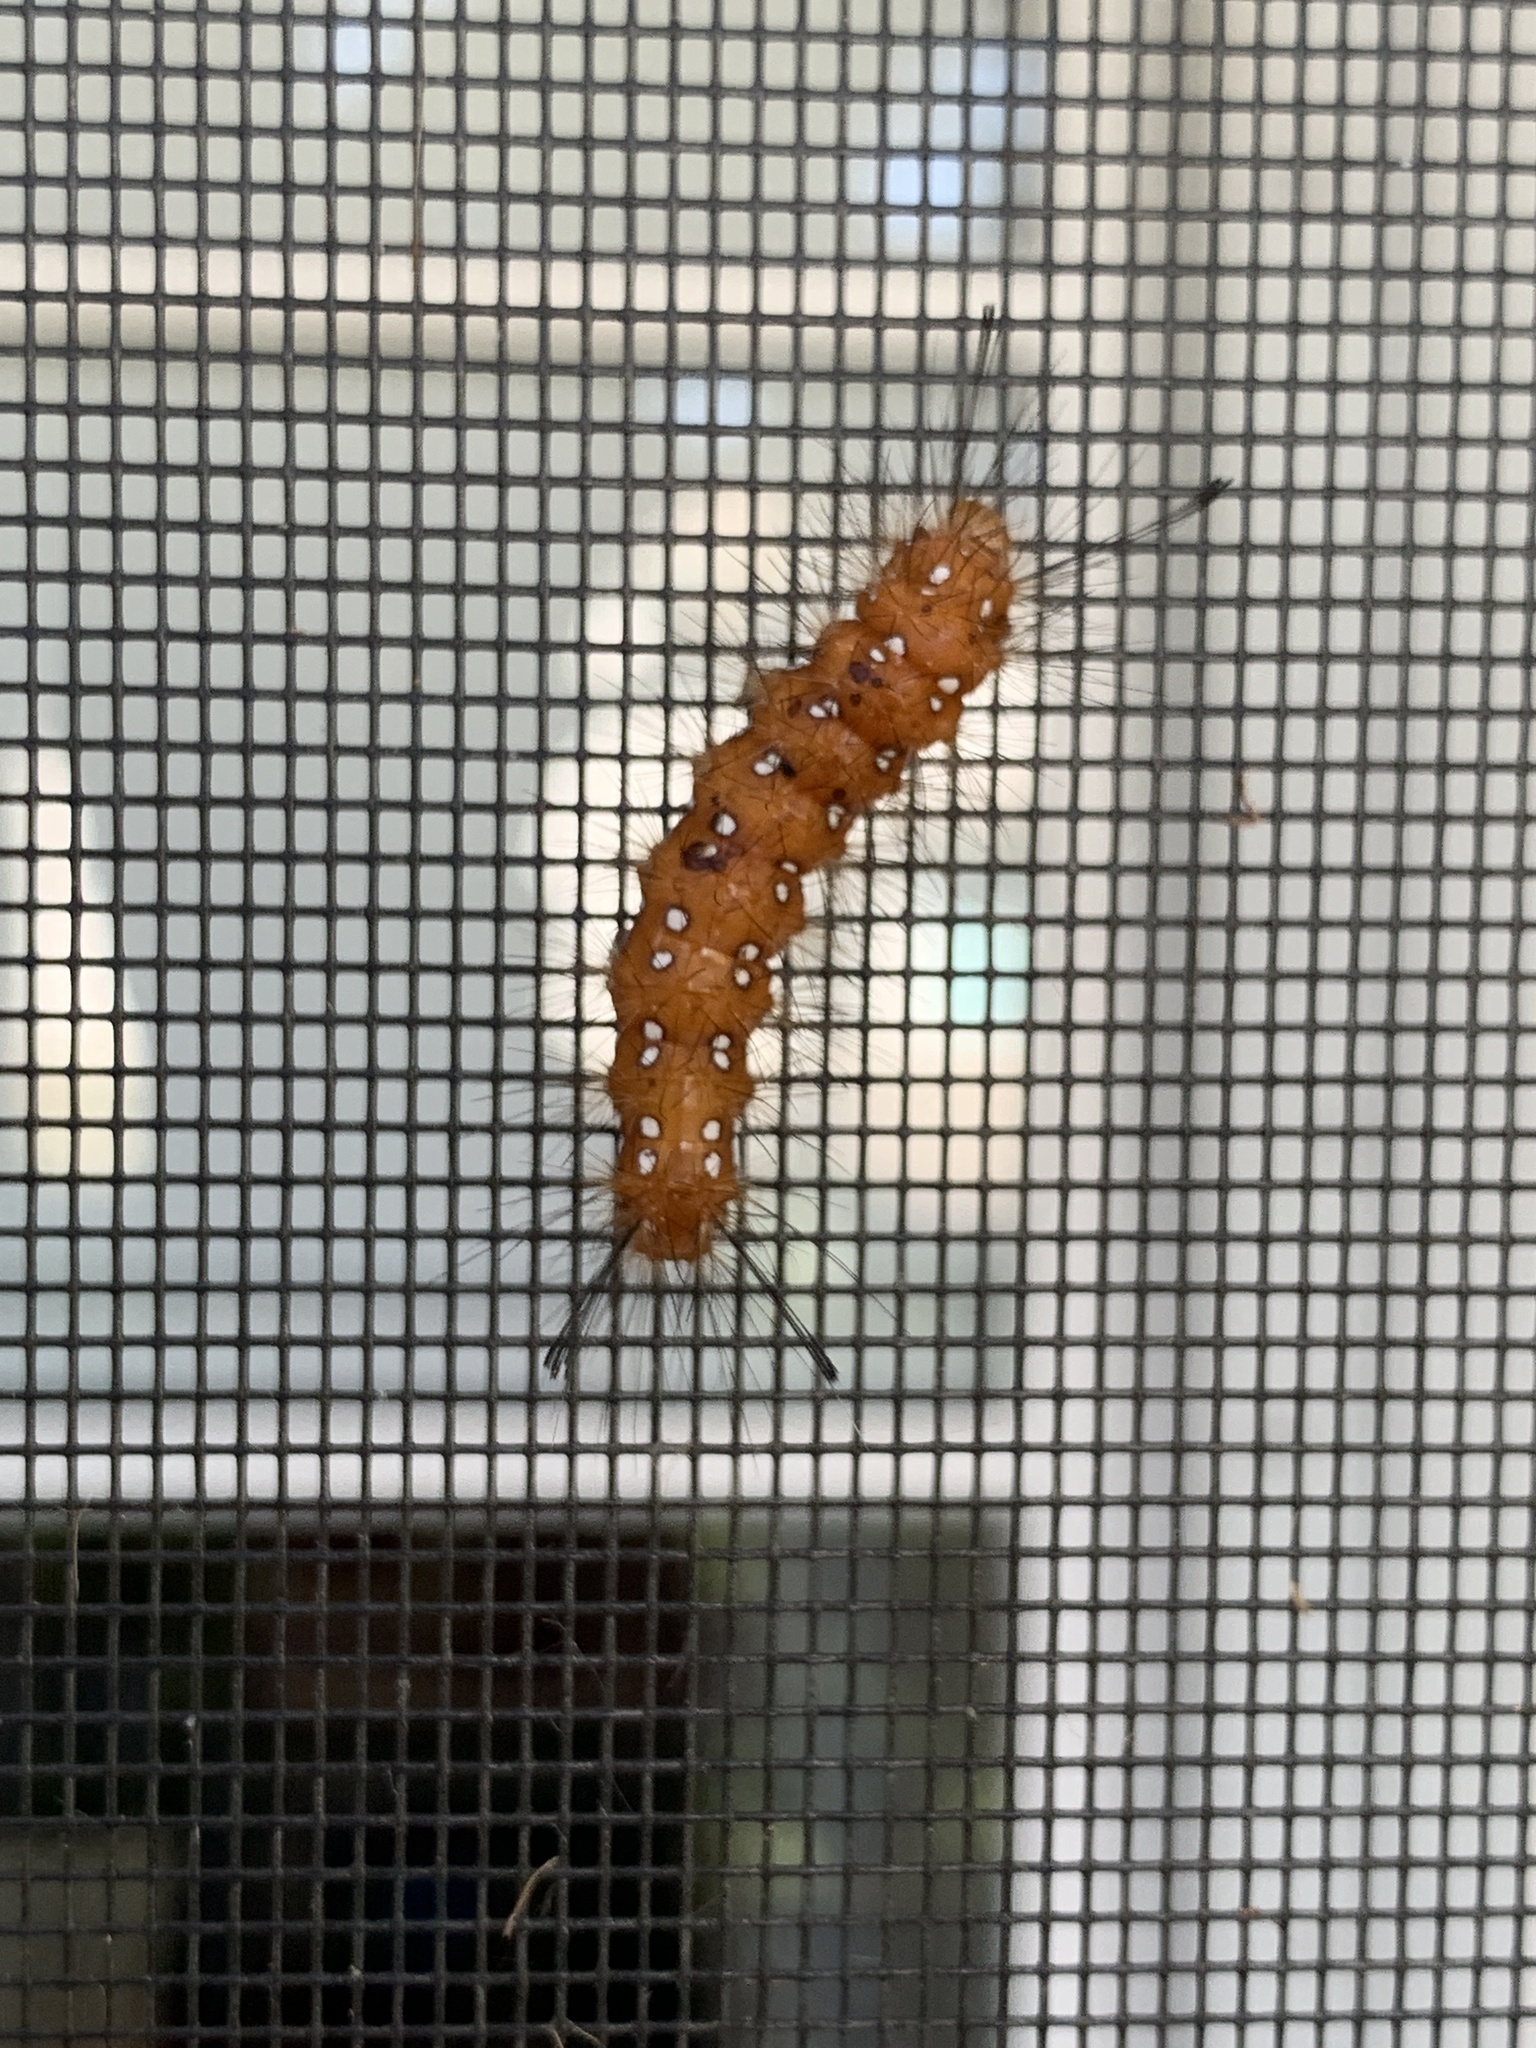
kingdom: Animalia
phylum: Arthropoda
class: Insecta
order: Lepidoptera
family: Erebidae
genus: Empyreuma
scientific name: Empyreuma pugione
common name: Spotted oleander caterpillar moth
